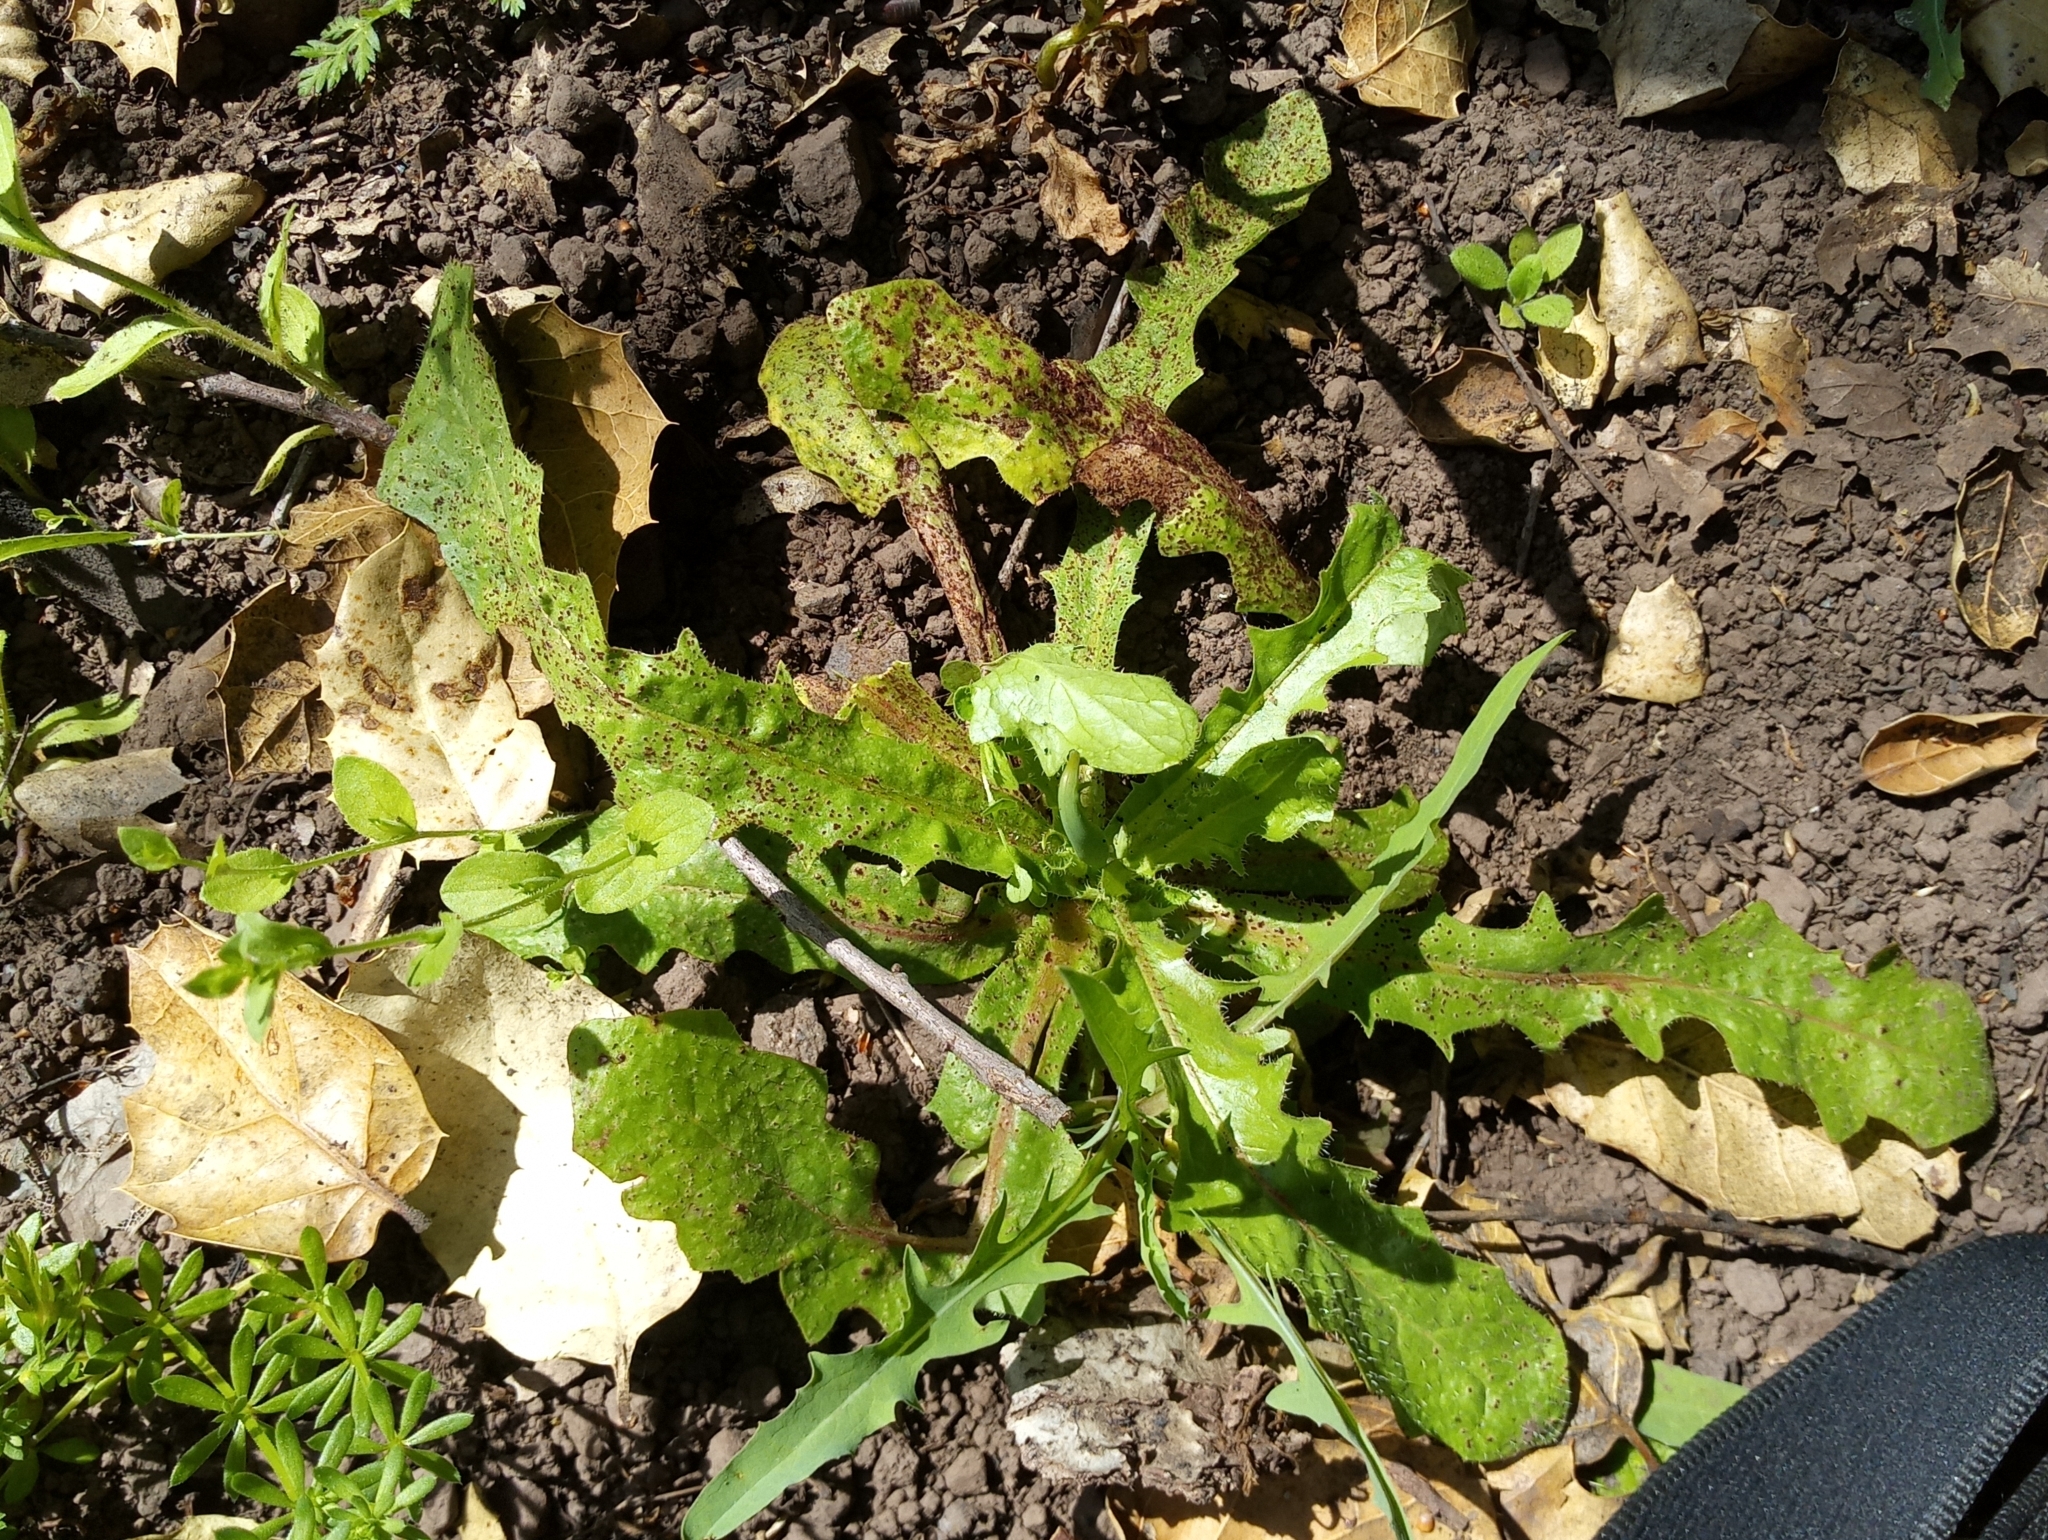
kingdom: Fungi
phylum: Basidiomycota
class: Pucciniomycetes
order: Pucciniales
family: Pucciniaceae
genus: Puccinia
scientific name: Puccinia hieracii
